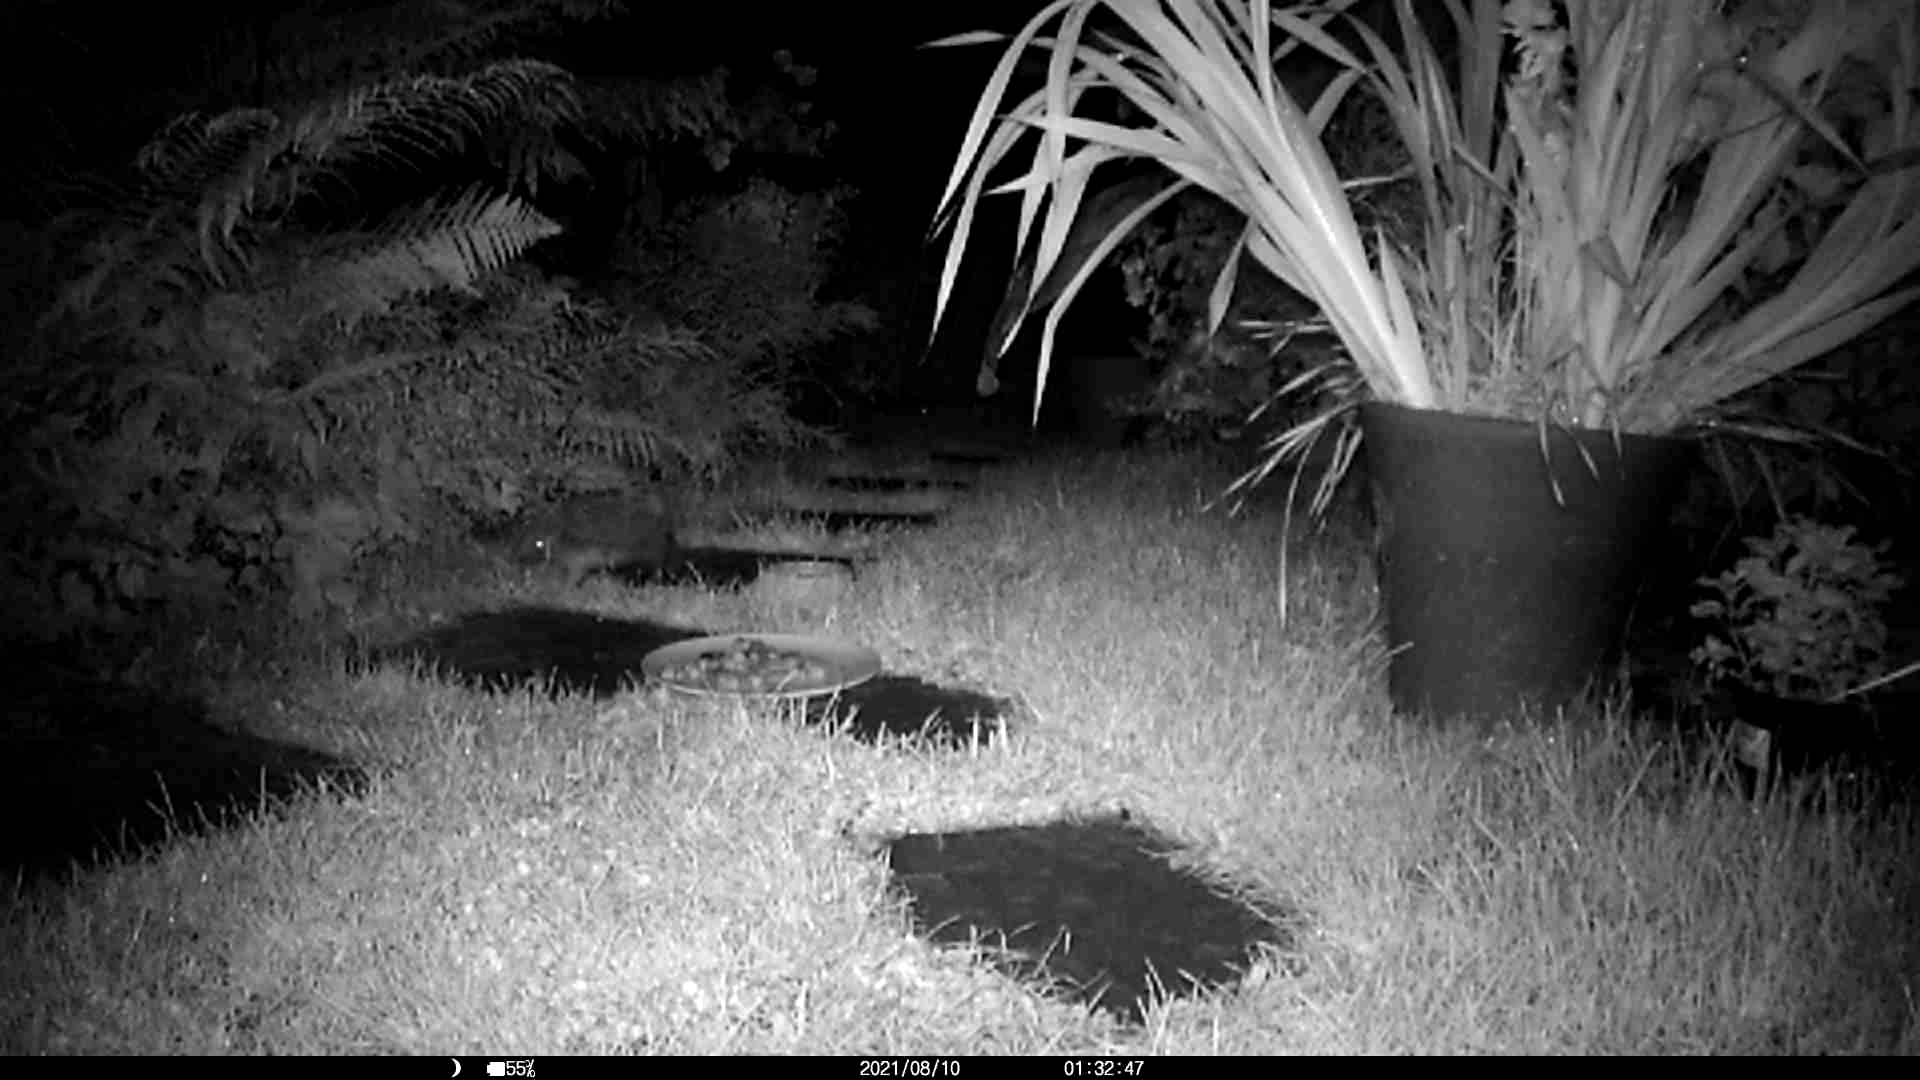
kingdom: Animalia
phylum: Chordata
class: Mammalia
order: Erinaceomorpha
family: Erinaceidae
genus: Erinaceus
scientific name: Erinaceus europaeus
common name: West european hedgehog
